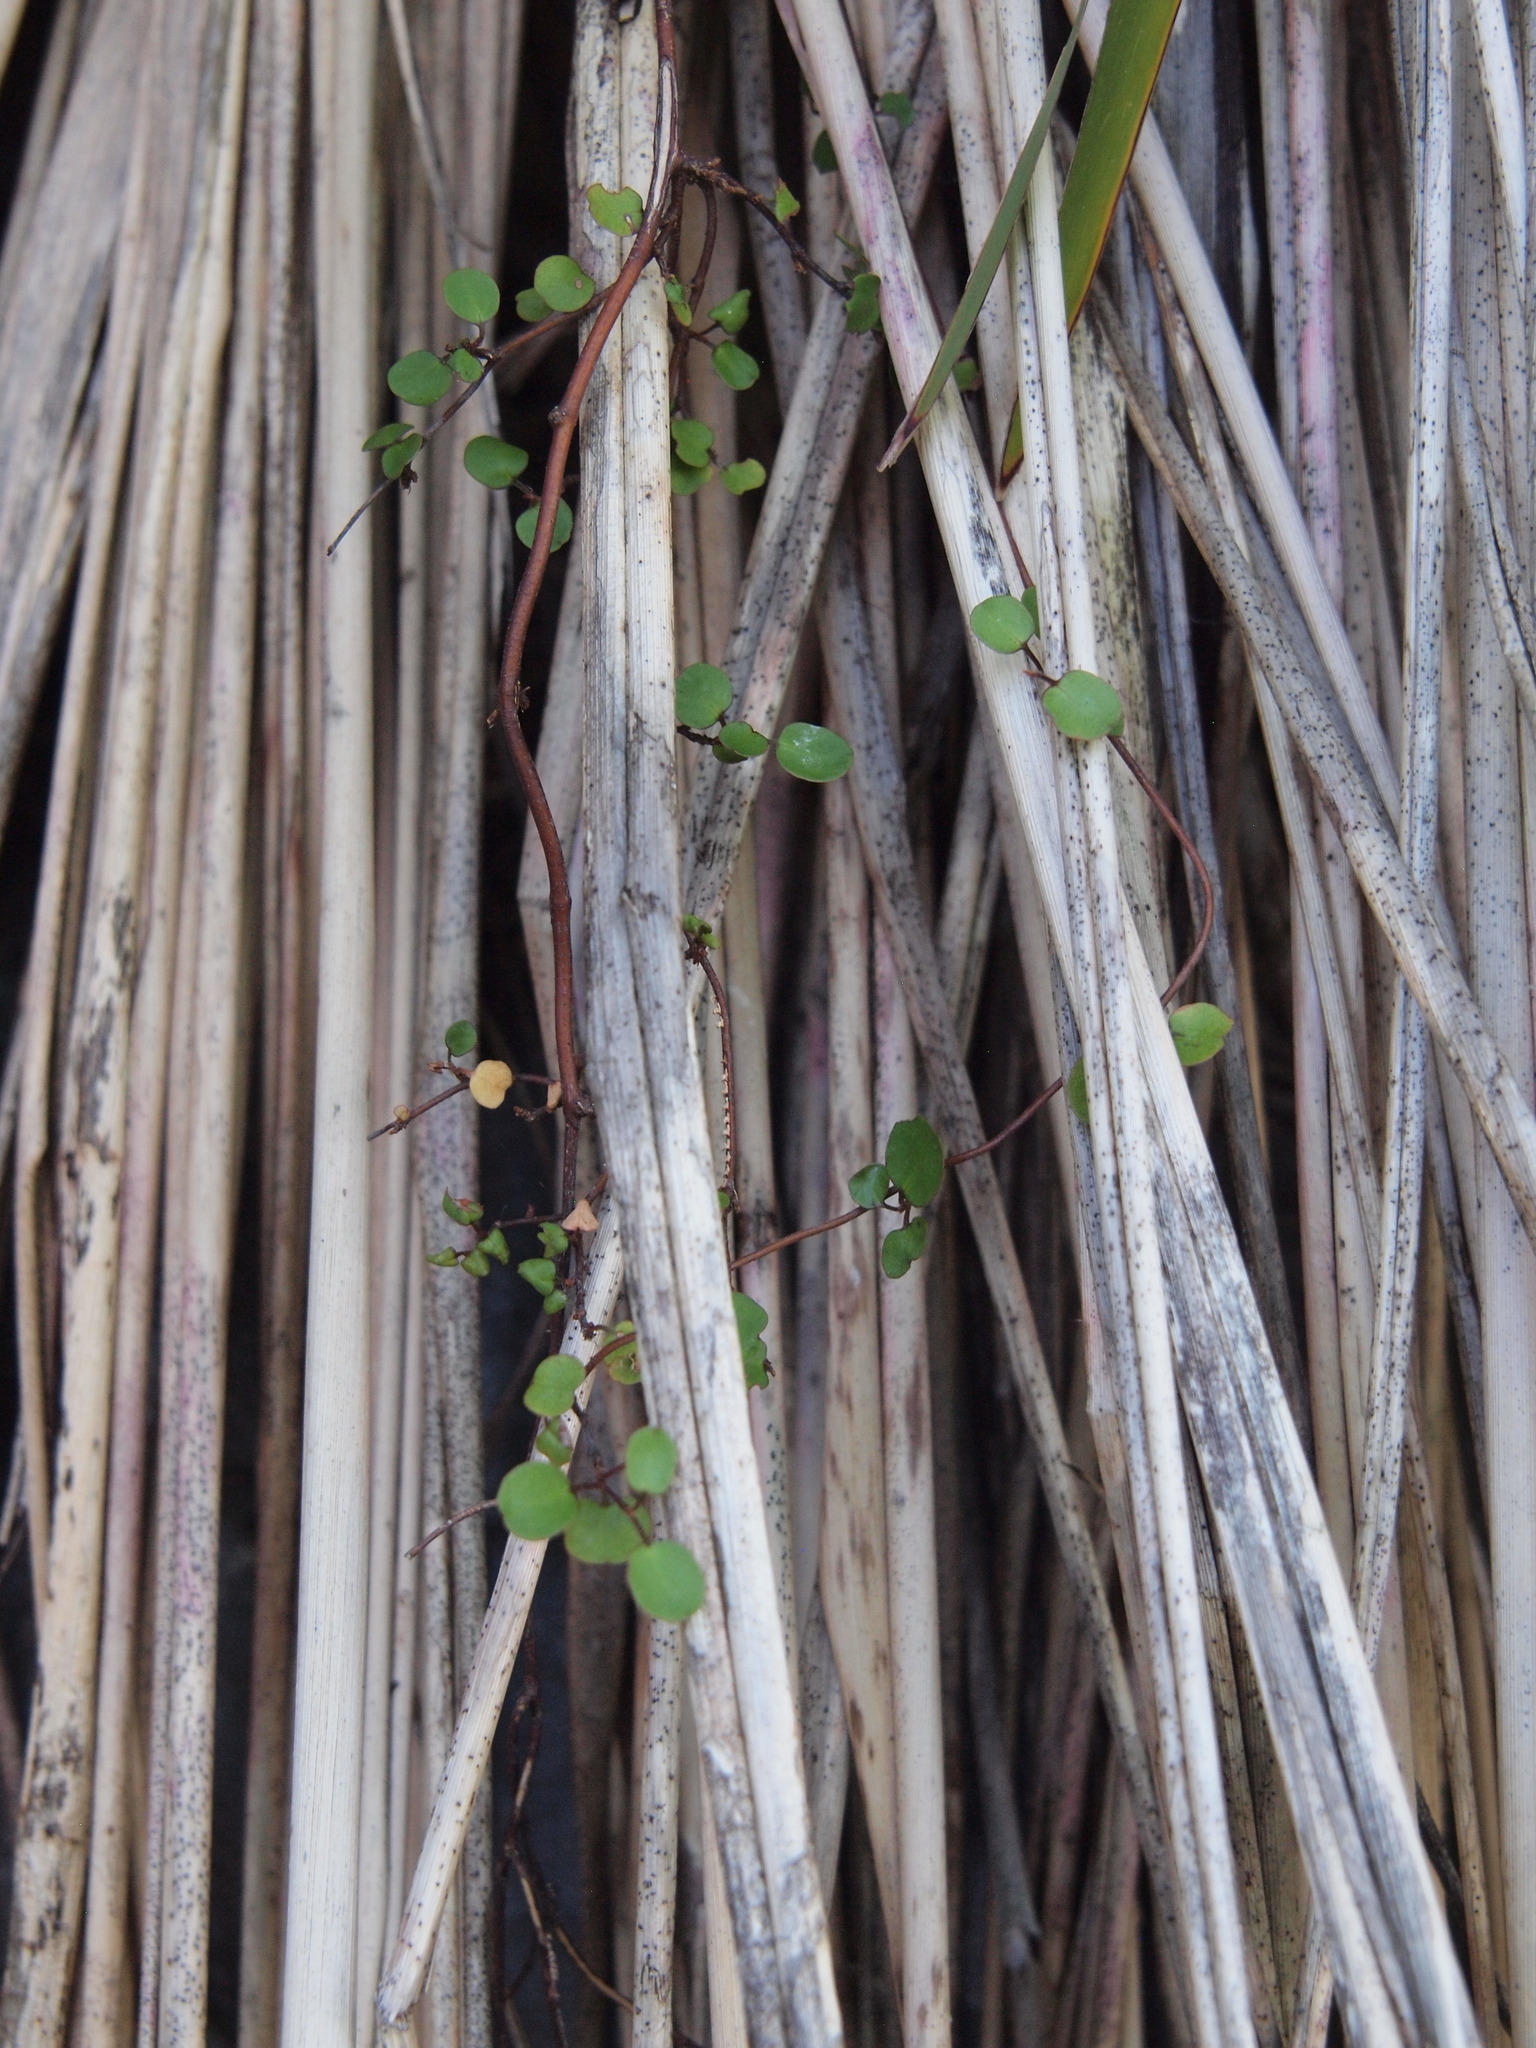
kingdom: Plantae
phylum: Tracheophyta
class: Magnoliopsida
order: Caryophyllales
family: Polygonaceae
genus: Muehlenbeckia
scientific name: Muehlenbeckia complexa
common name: Wireplant
